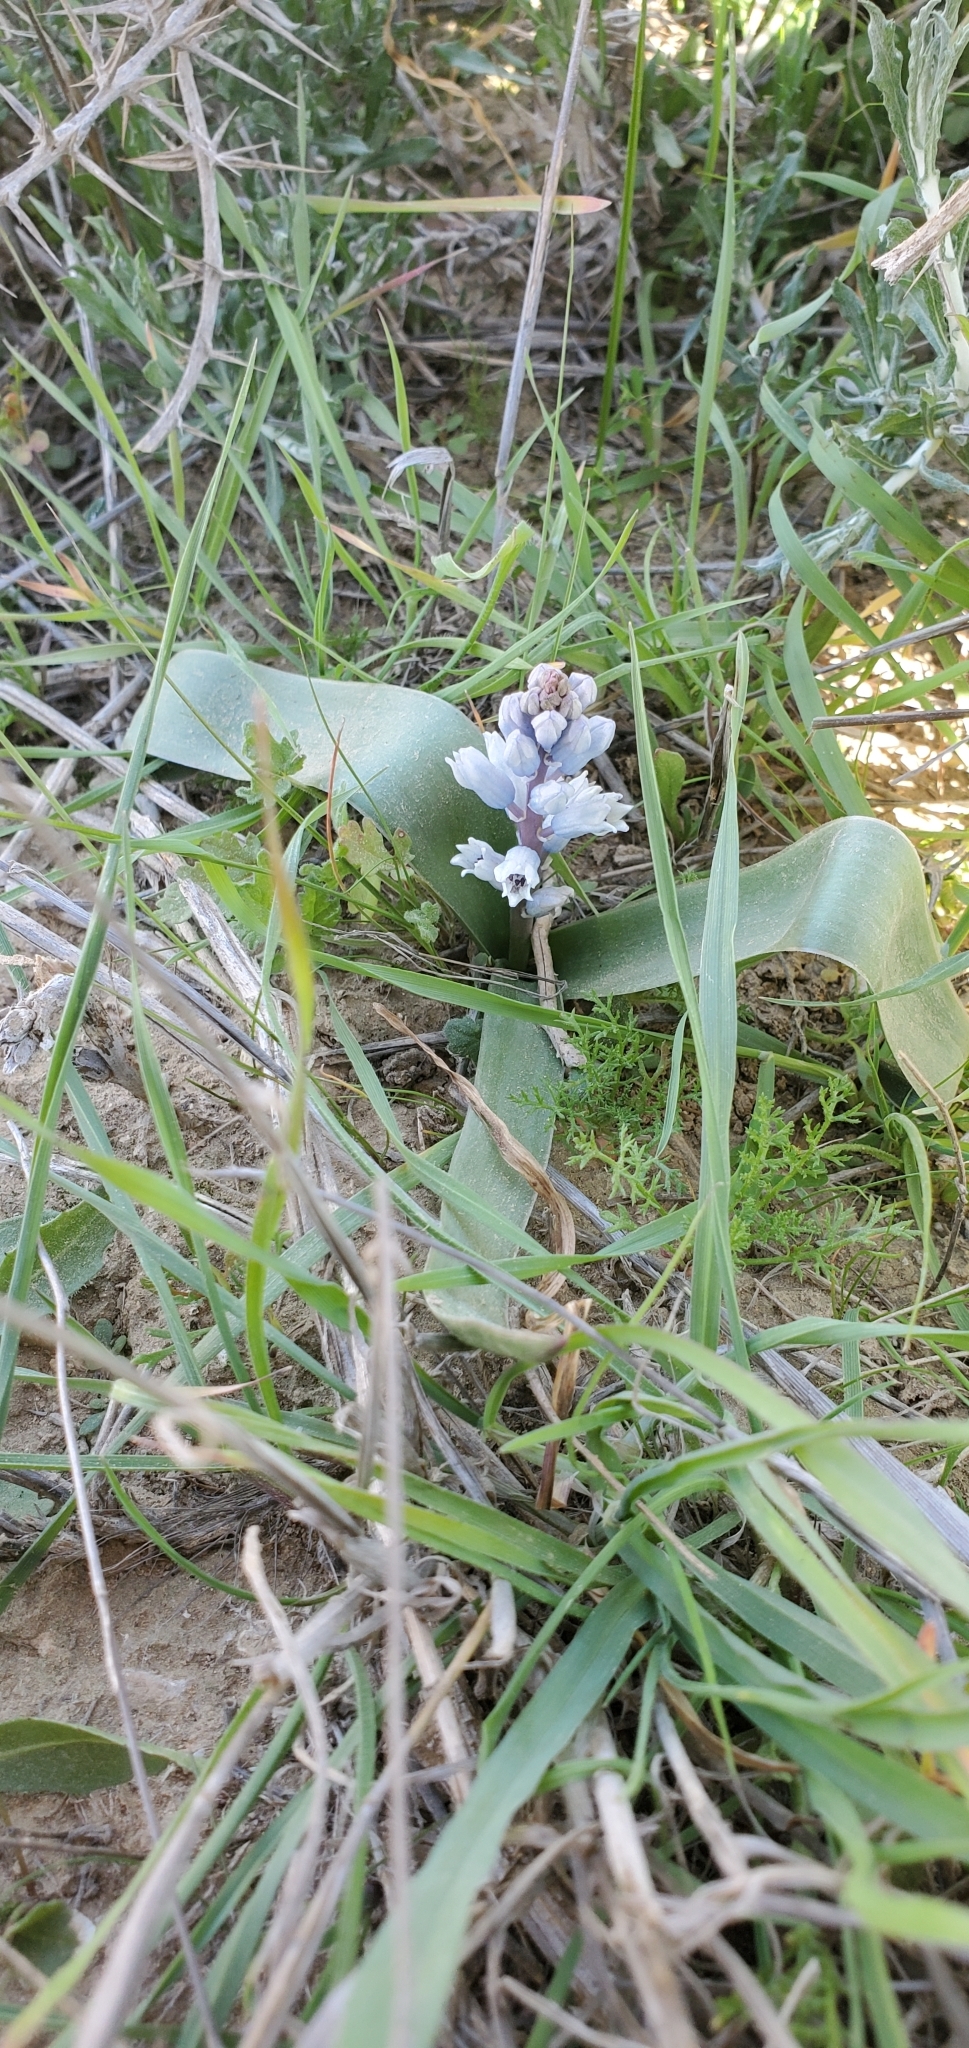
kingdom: Plantae
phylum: Tracheophyta
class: Liliopsida
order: Asparagales
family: Asparagaceae
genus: Bellevalia
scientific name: Bellevalia desertorum
